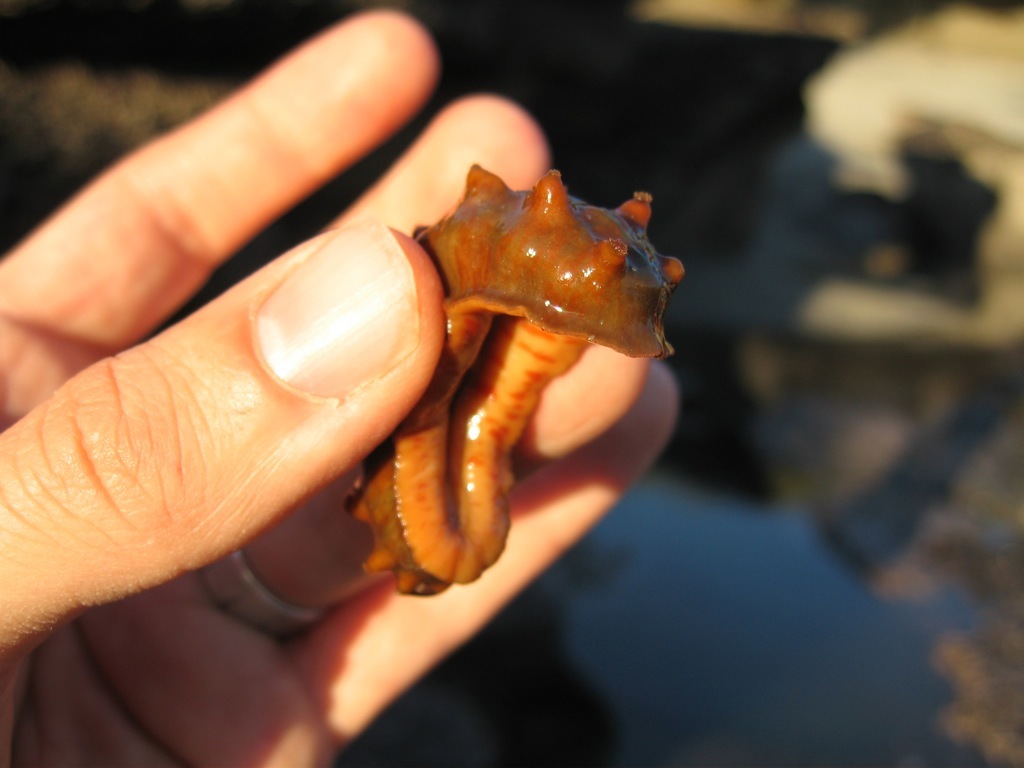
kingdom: Animalia
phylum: Mollusca
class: Polyplacophora
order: Chitonida
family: Acanthochitonidae
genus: Cryptoconchus
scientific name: Cryptoconchus porosus
